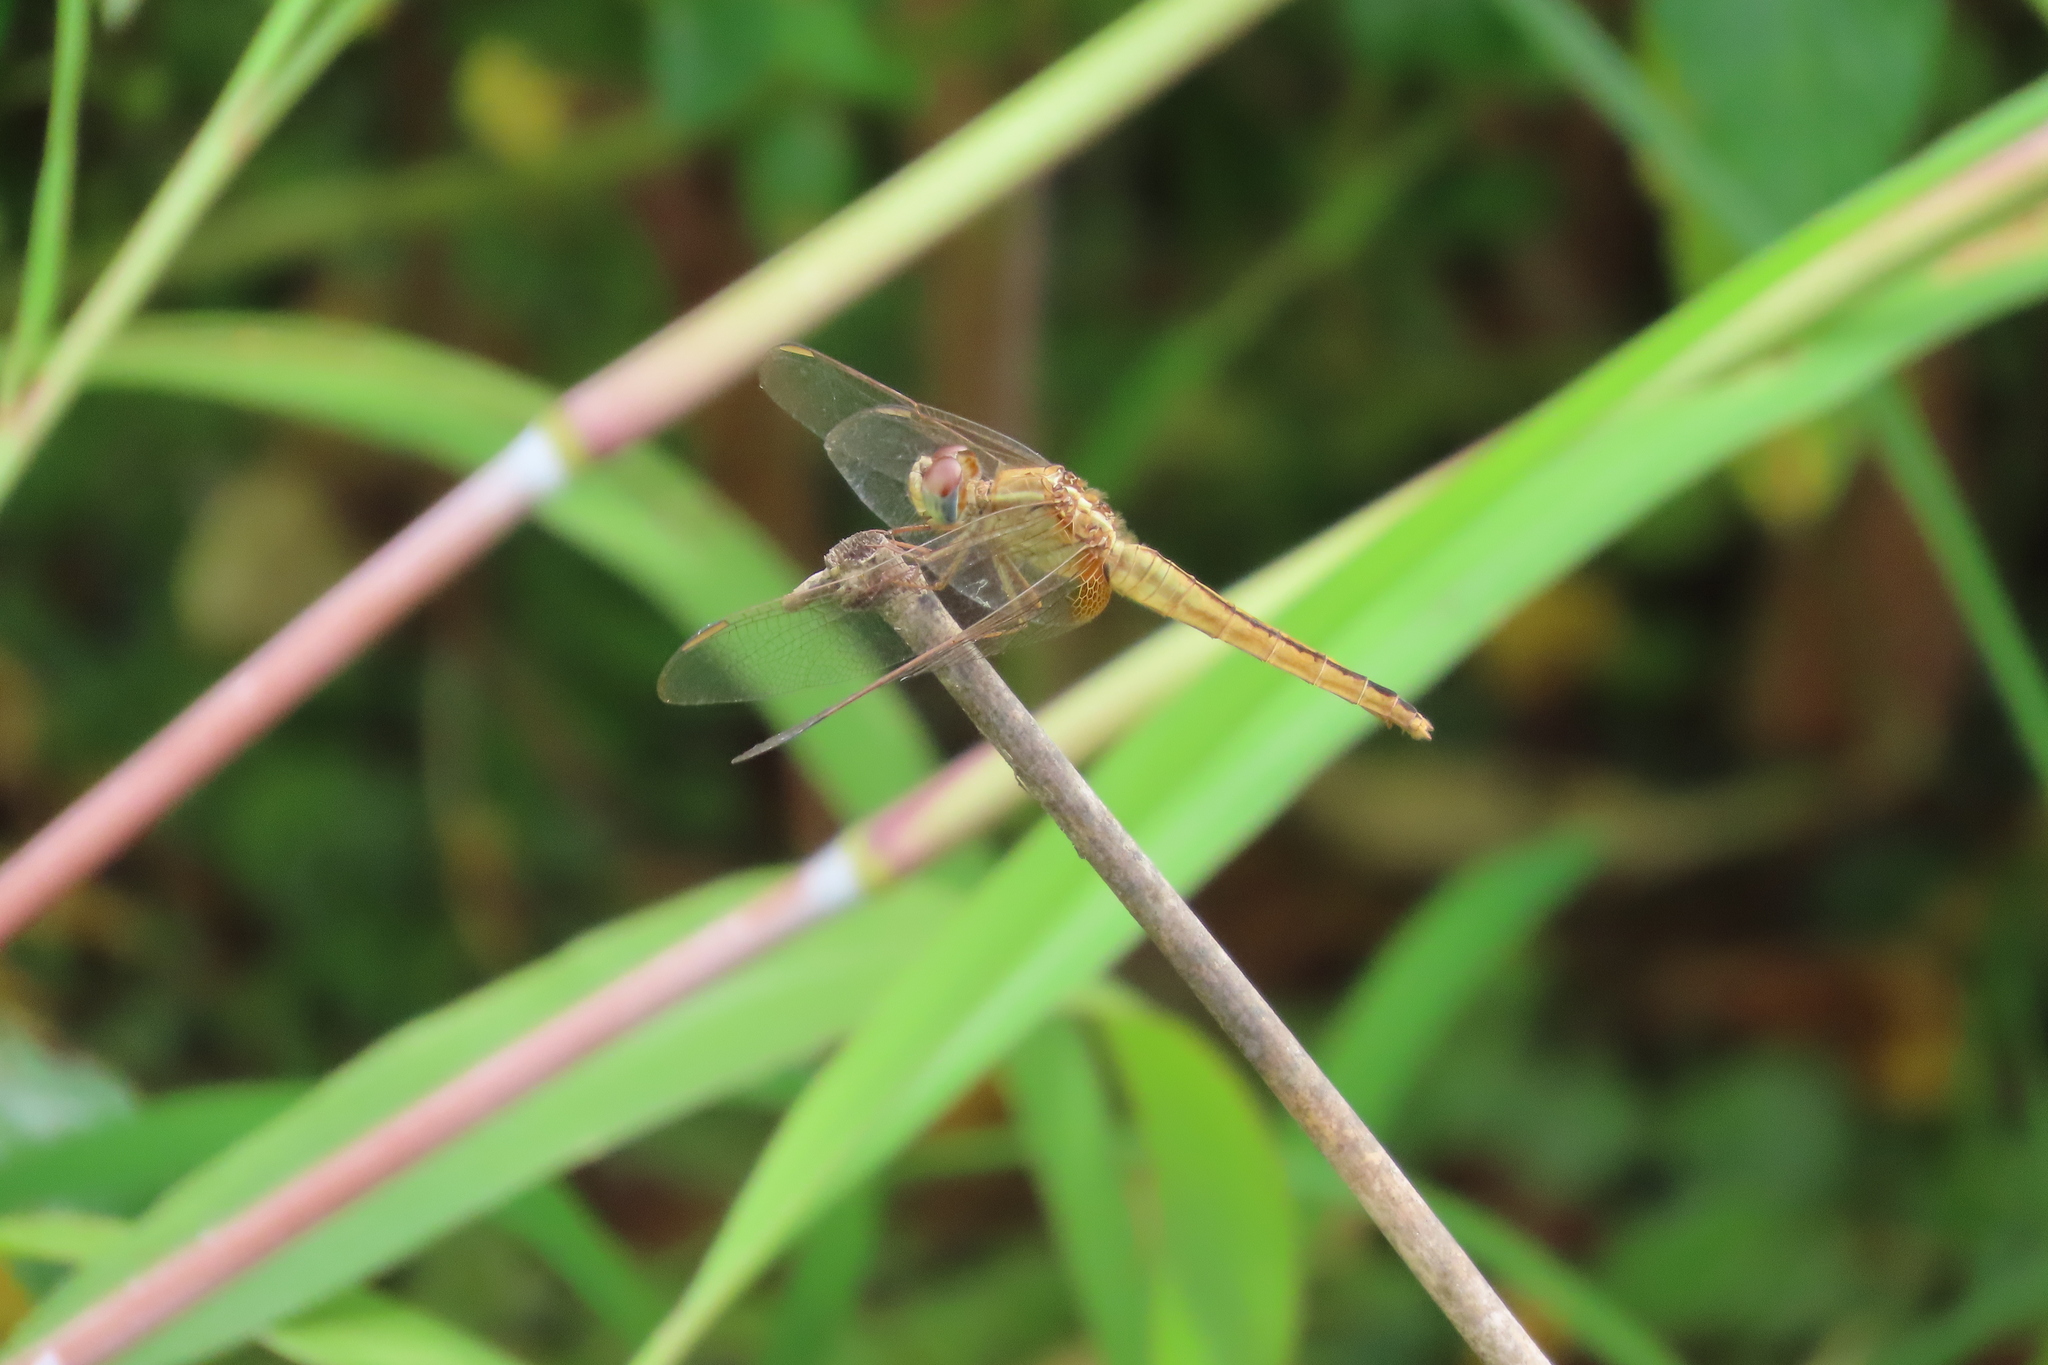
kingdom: Animalia
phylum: Arthropoda
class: Insecta
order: Odonata
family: Libellulidae
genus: Crocothemis
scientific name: Crocothemis servilia
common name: Scarlet skimmer
